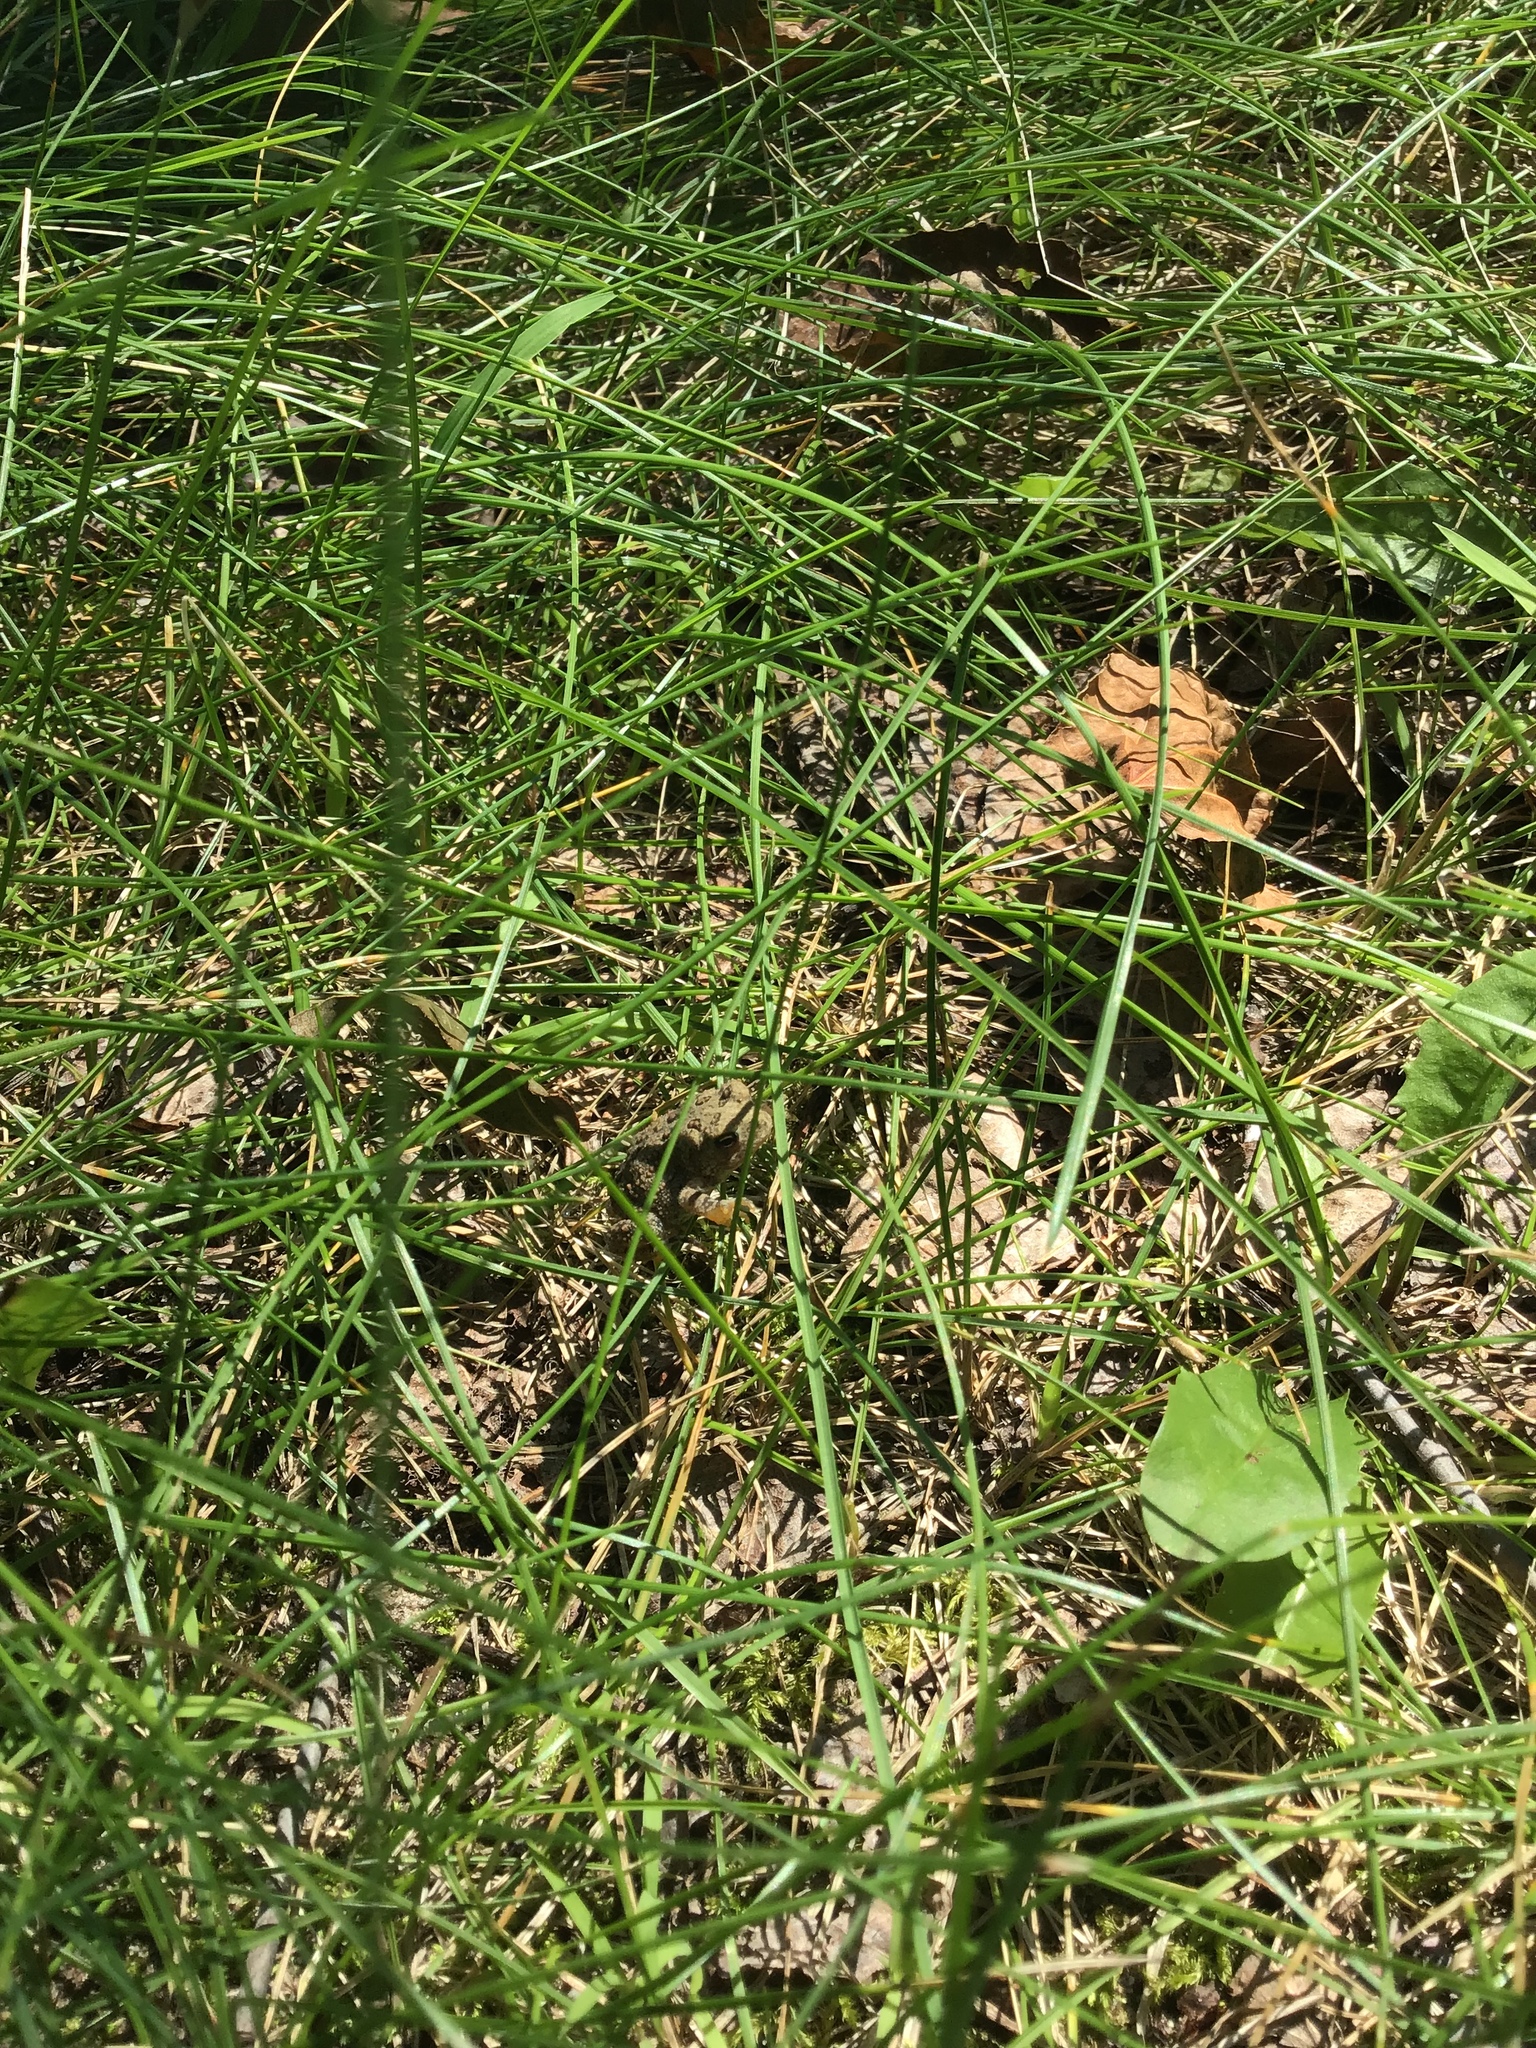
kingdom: Animalia
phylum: Chordata
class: Amphibia
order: Anura
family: Bufonidae
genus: Anaxyrus
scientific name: Anaxyrus americanus
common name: American toad
